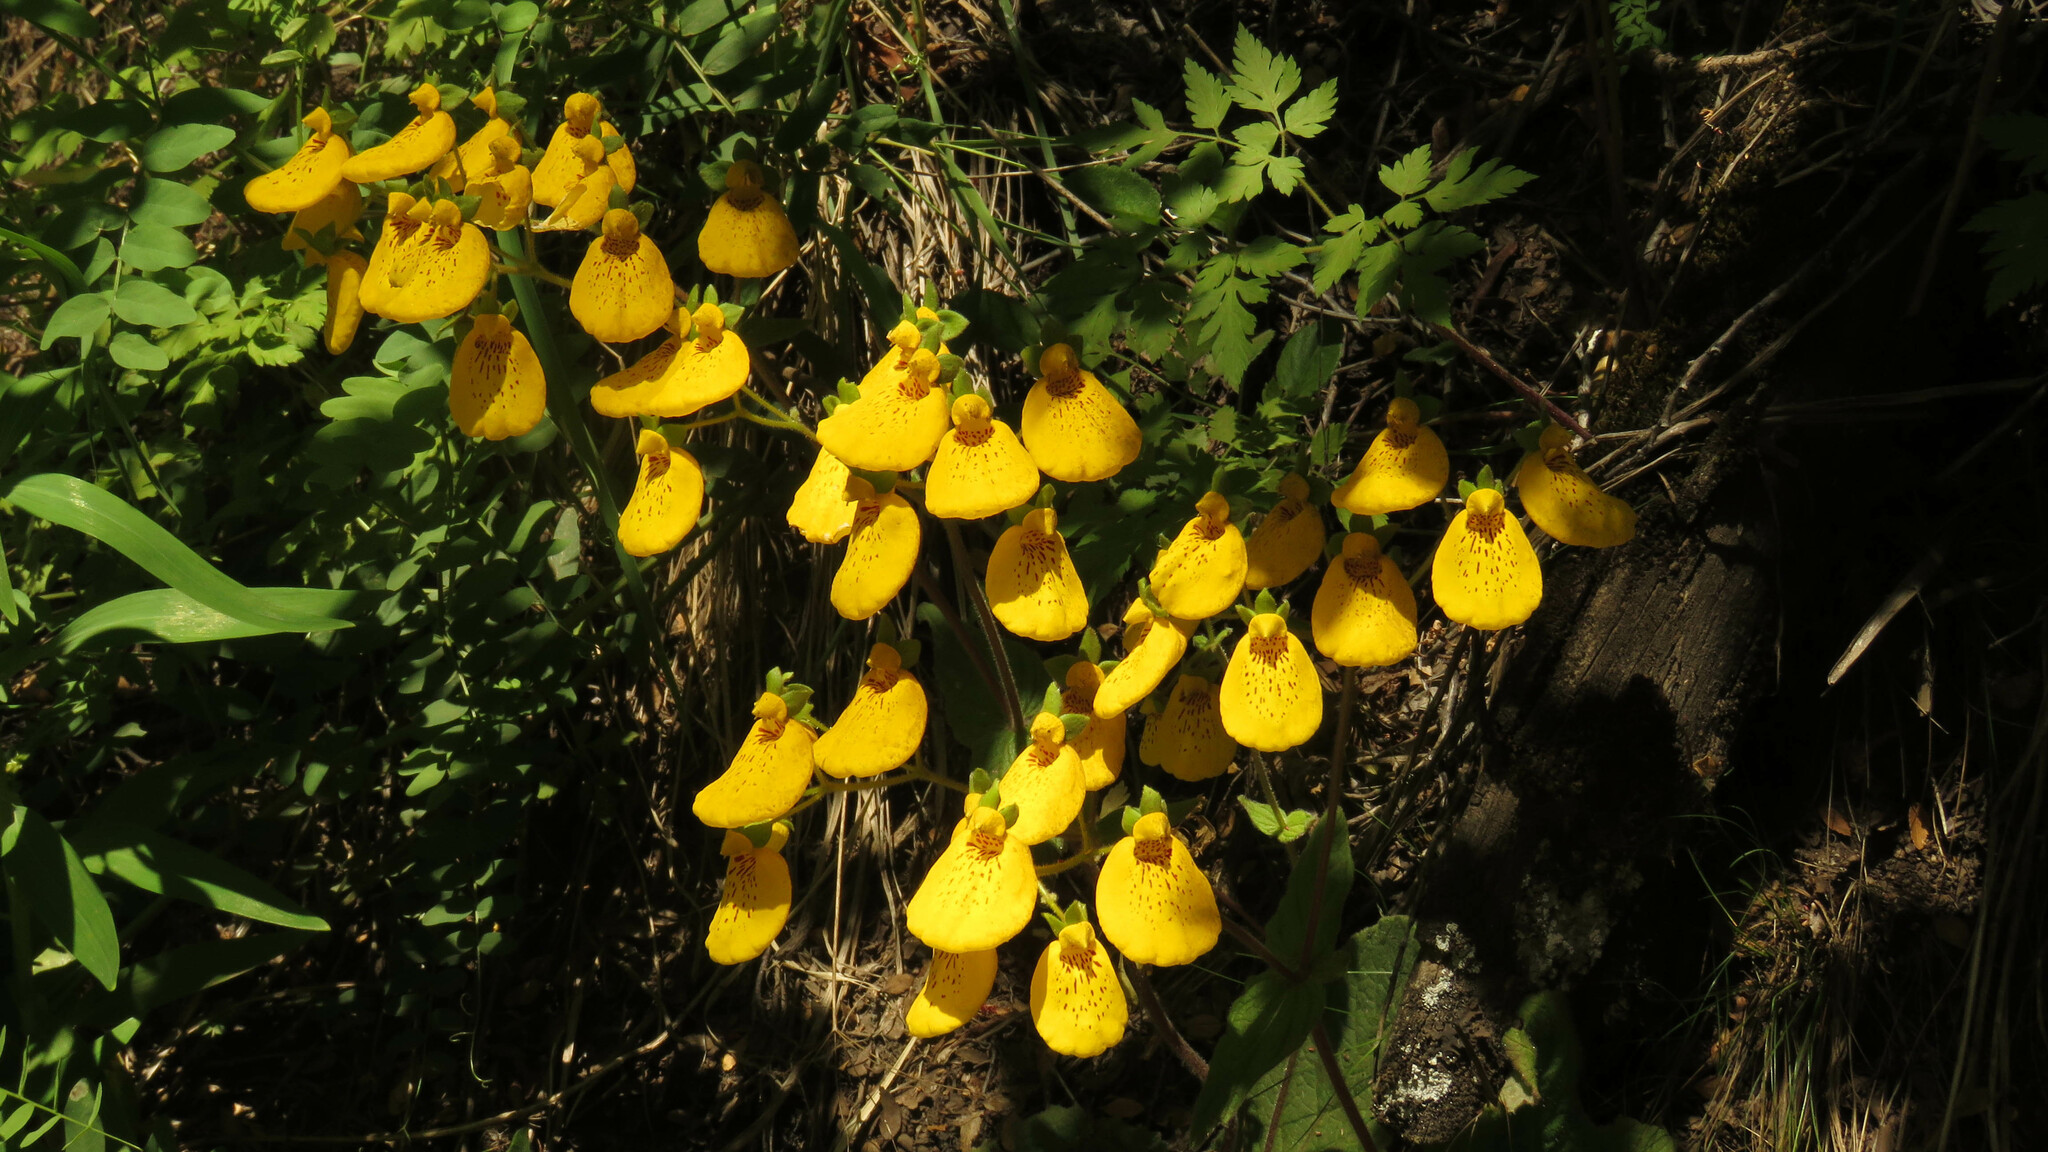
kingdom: Plantae
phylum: Tracheophyta
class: Magnoliopsida
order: Lamiales
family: Calceolariaceae
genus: Calceolaria
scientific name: Calceolaria crenatiflora
